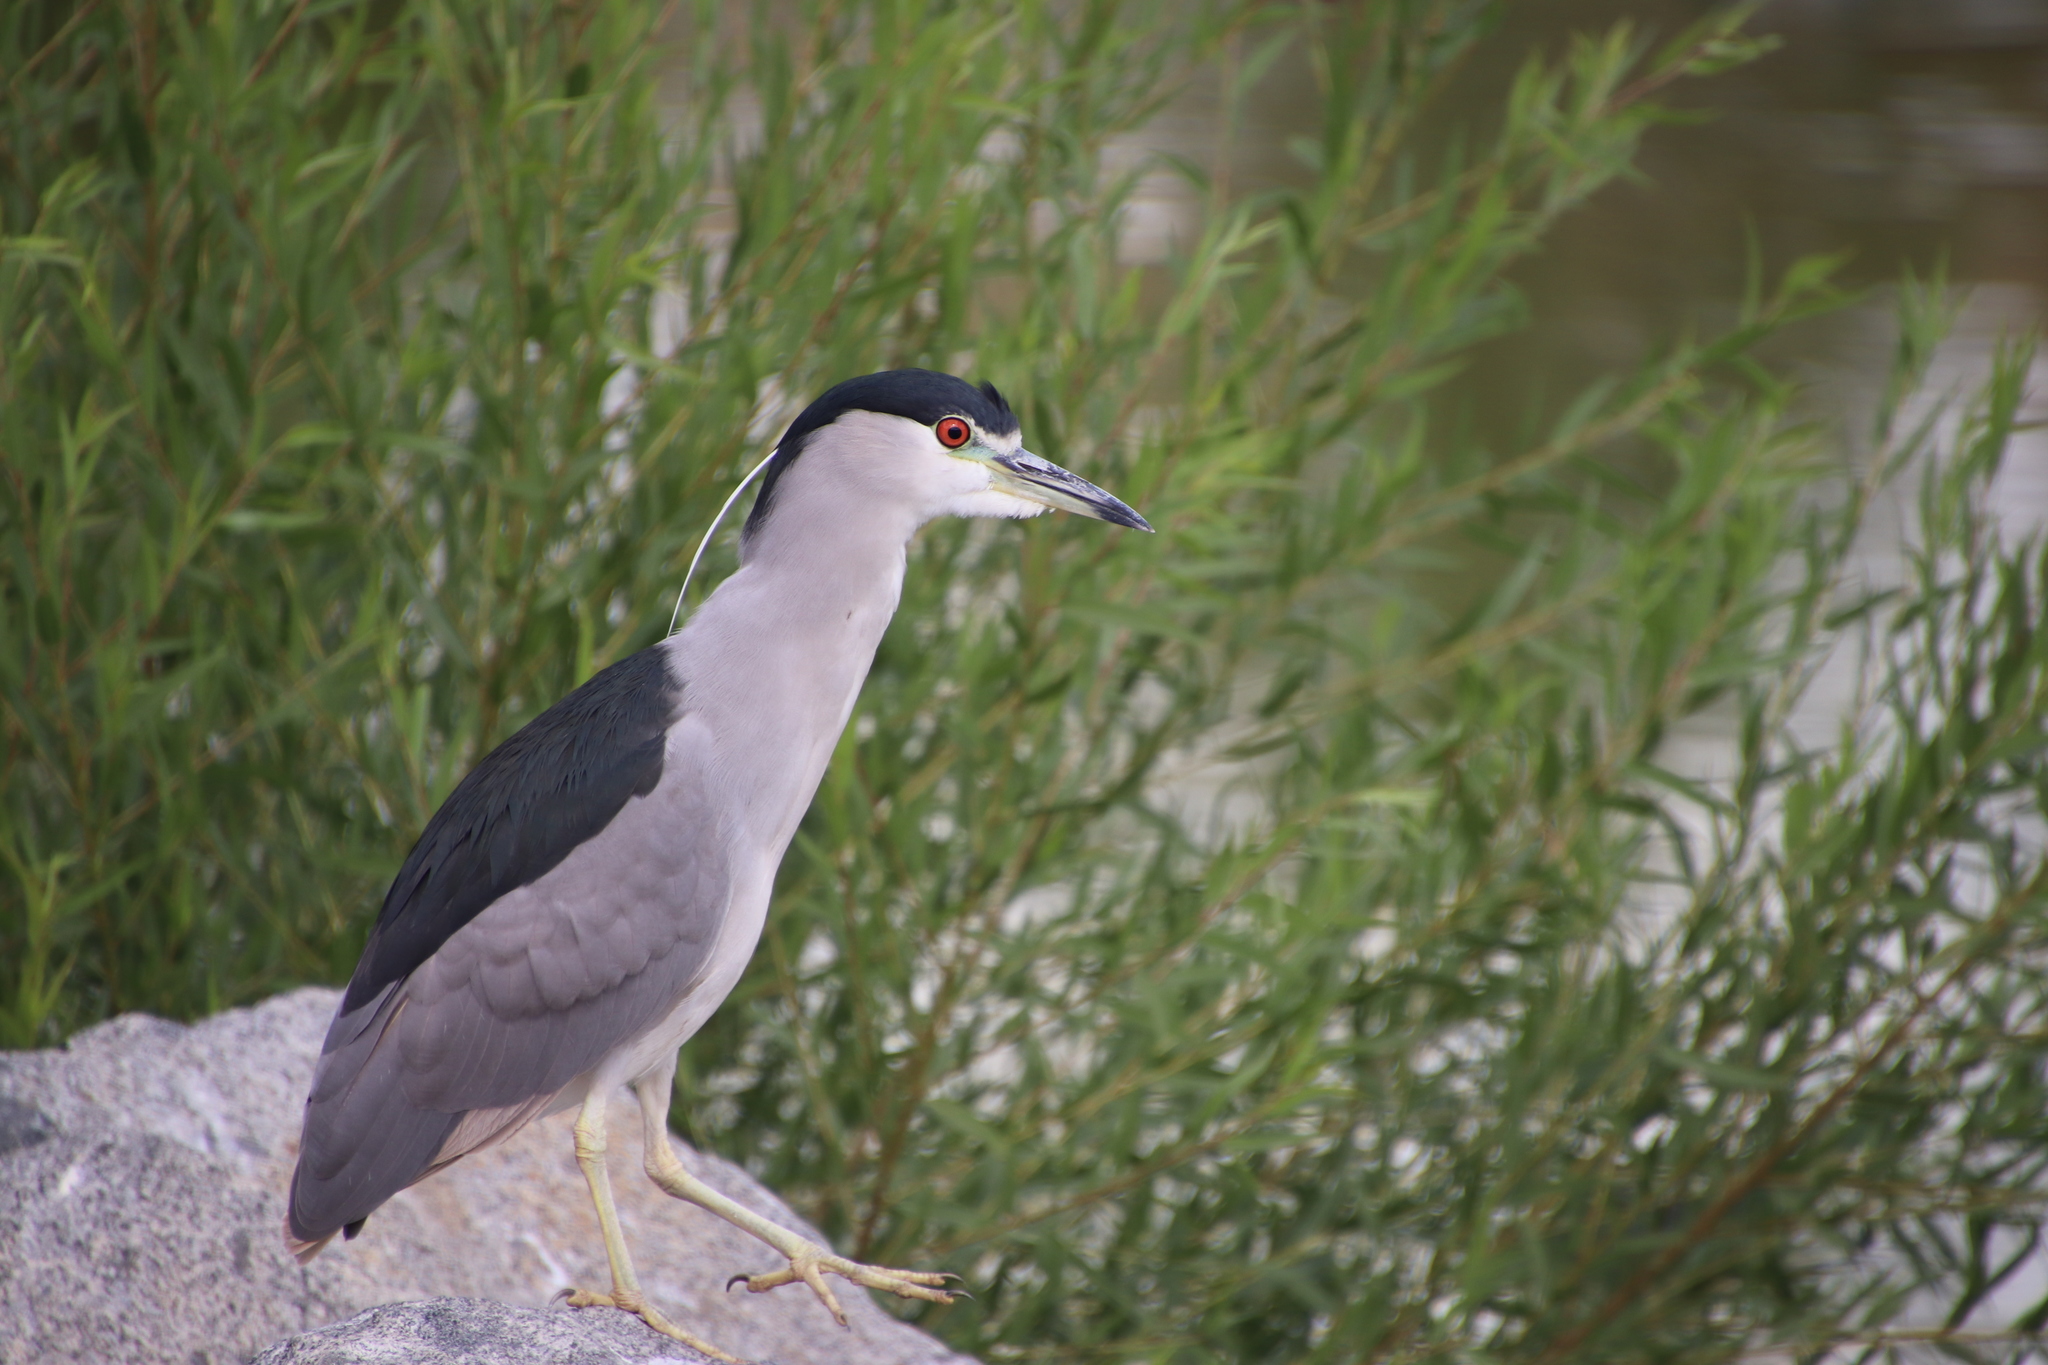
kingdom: Animalia
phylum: Chordata
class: Aves
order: Pelecaniformes
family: Ardeidae
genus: Nycticorax
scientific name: Nycticorax nycticorax
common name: Black-crowned night heron
